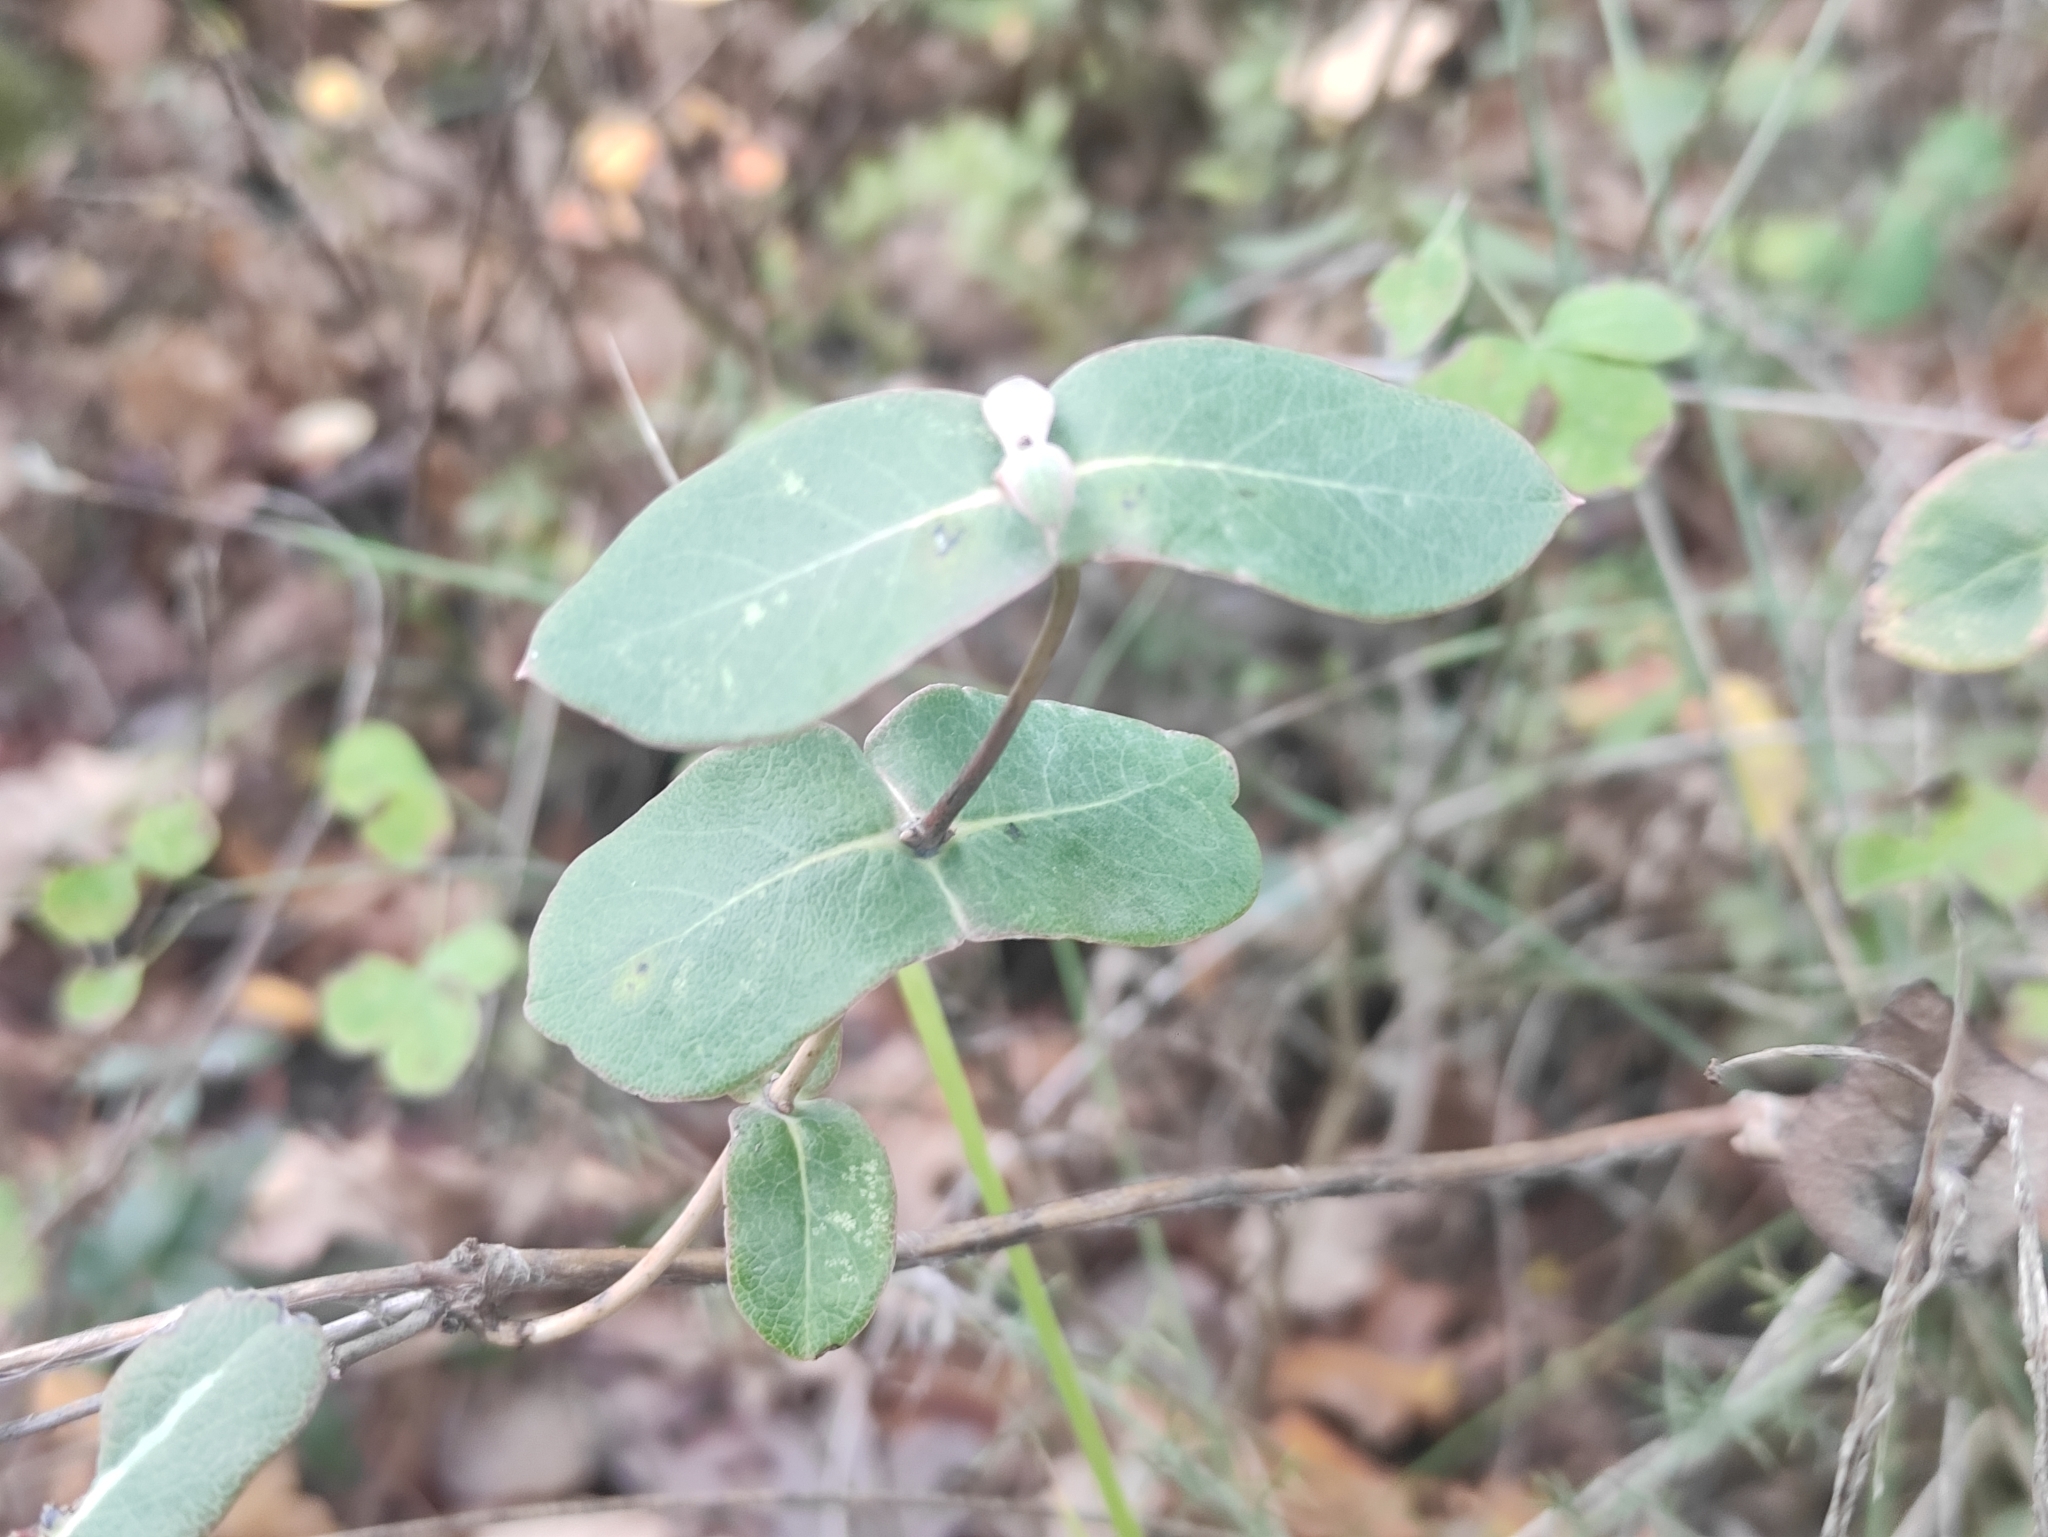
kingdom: Plantae
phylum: Tracheophyta
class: Magnoliopsida
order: Dipsacales
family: Caprifoliaceae
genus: Lonicera
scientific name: Lonicera implexa
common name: Minorca honeysuckle
